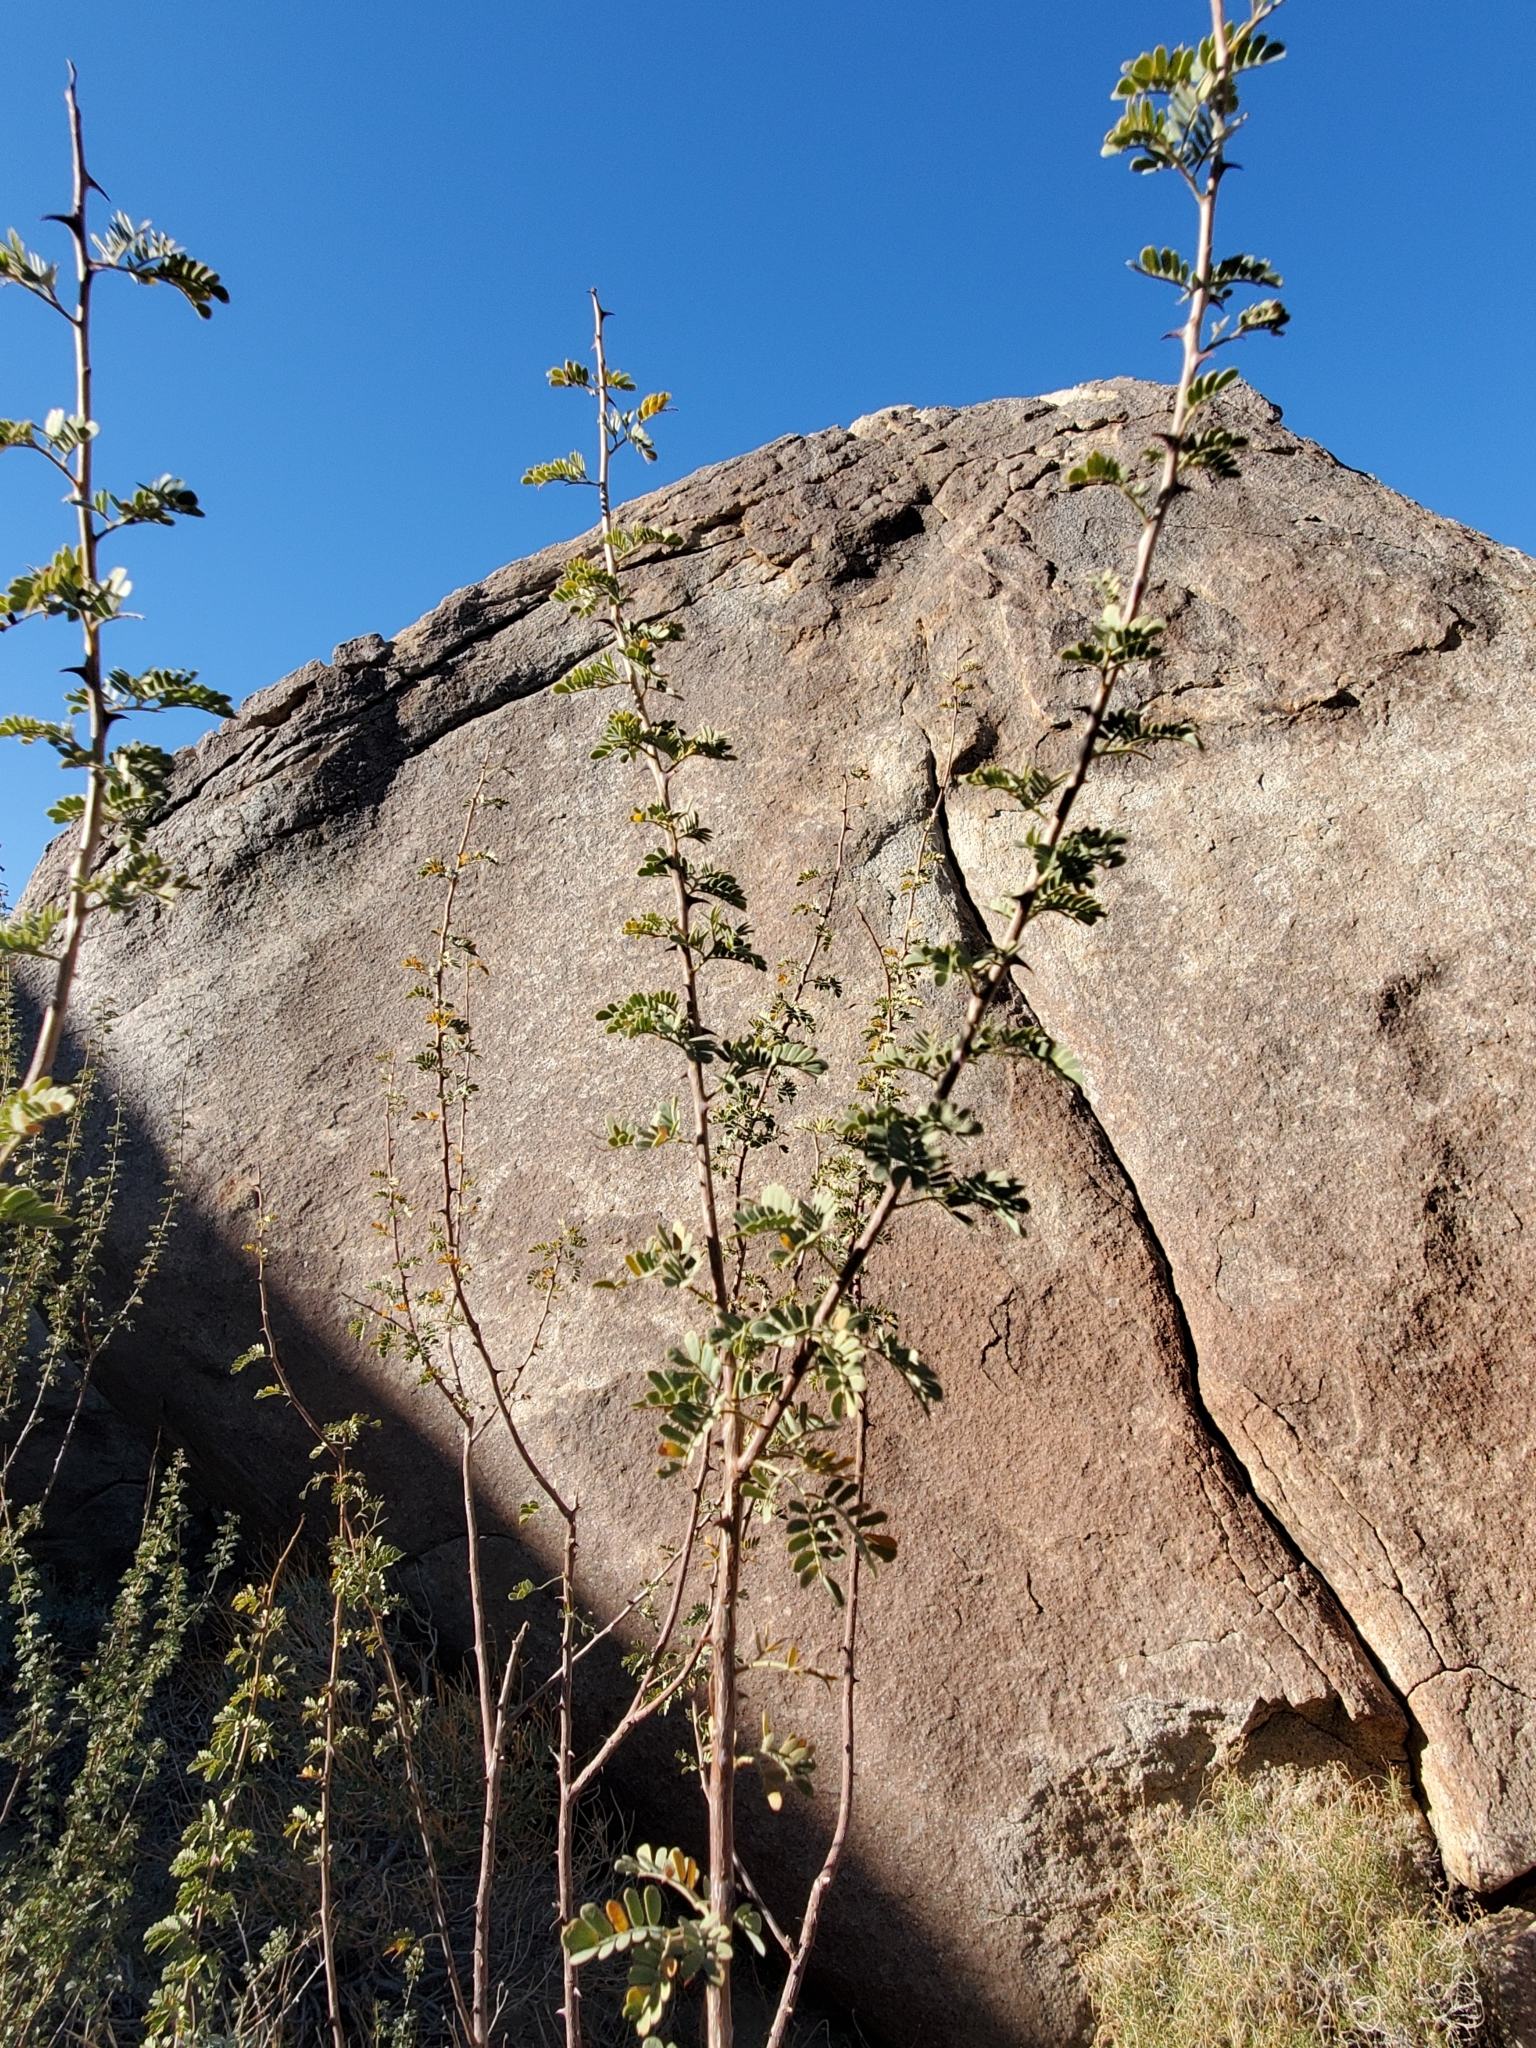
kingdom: Plantae
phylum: Tracheophyta
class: Magnoliopsida
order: Fabales
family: Fabaceae
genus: Senegalia
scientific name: Senegalia greggii
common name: Texas-mimosa
